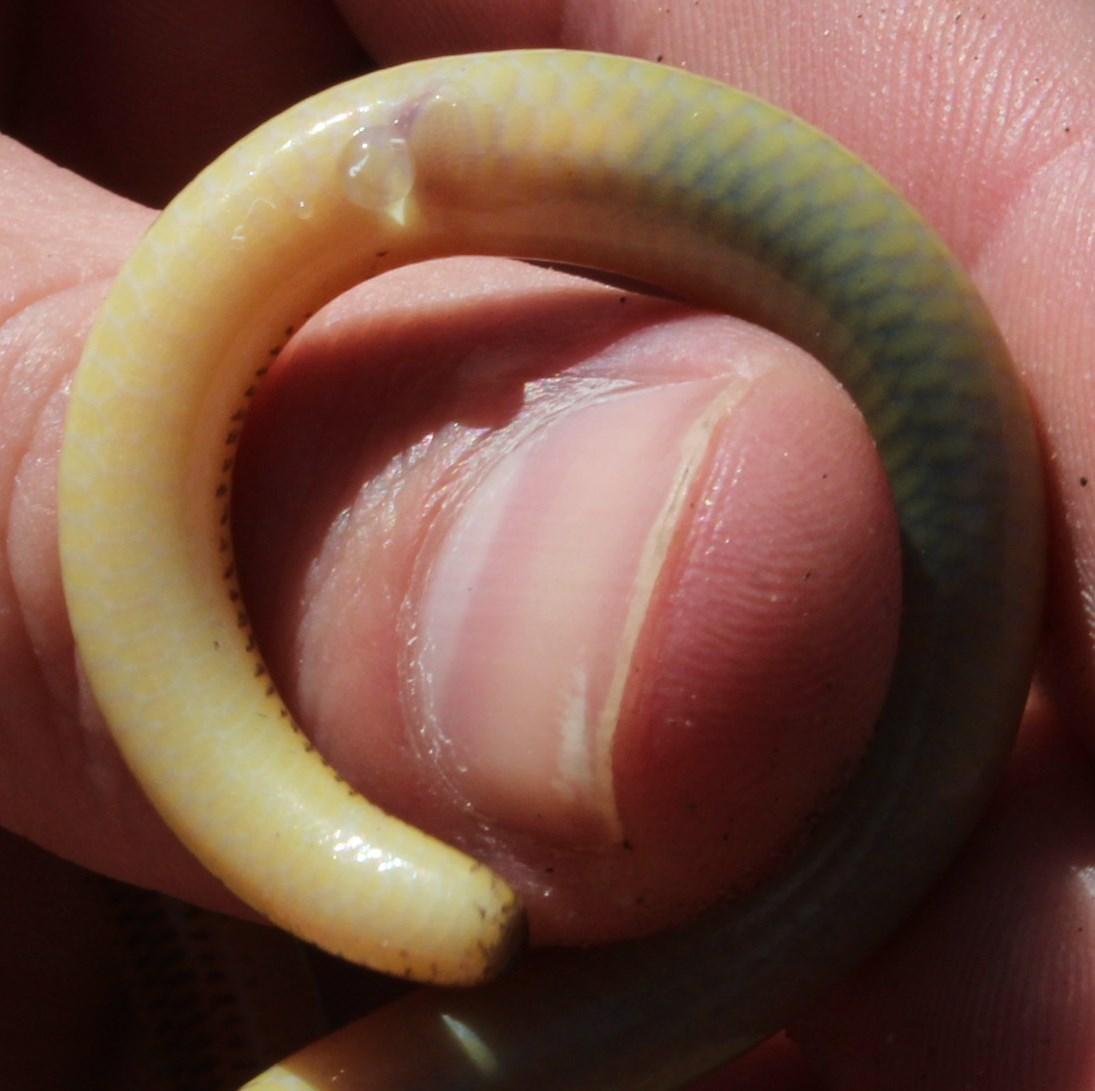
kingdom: Animalia
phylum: Chordata
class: Squamata
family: Scincidae
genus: Acontias
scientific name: Acontias meleagris
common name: Cape legless skink
